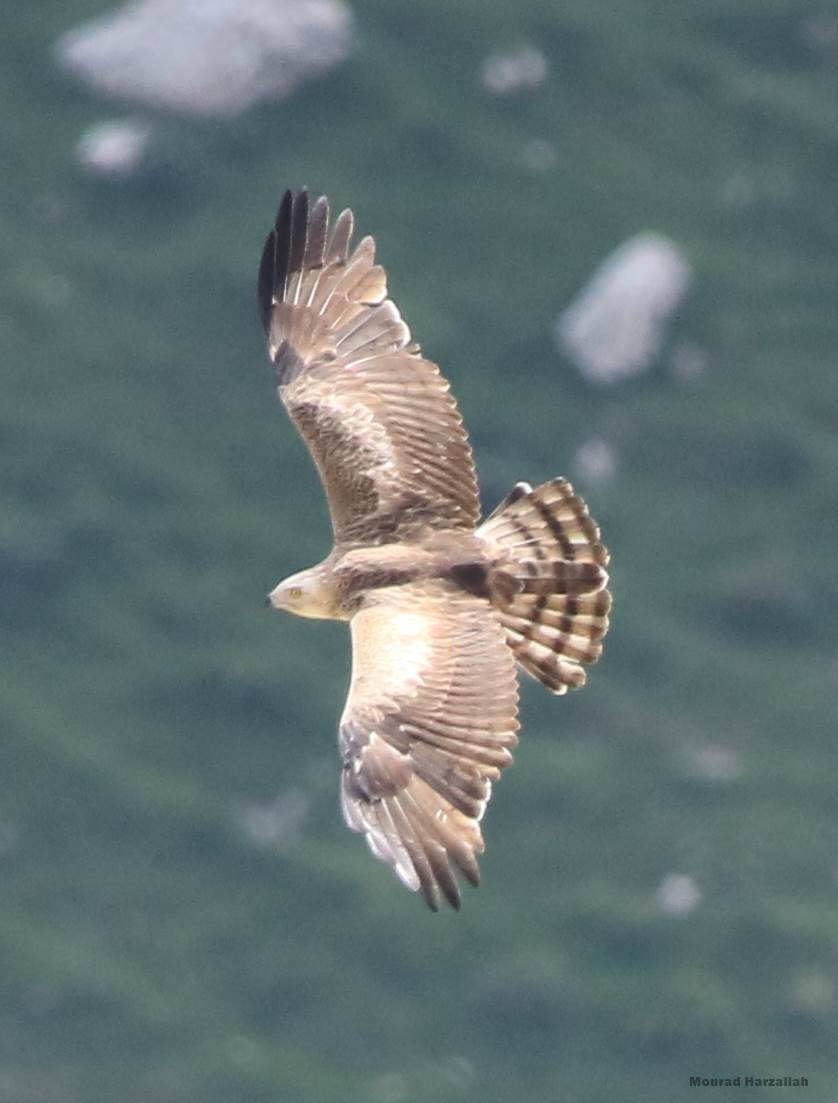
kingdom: Animalia
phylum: Chordata
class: Aves
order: Accipitriformes
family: Accipitridae
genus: Circaetus
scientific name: Circaetus gallicus
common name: Short-toed snake eagle
